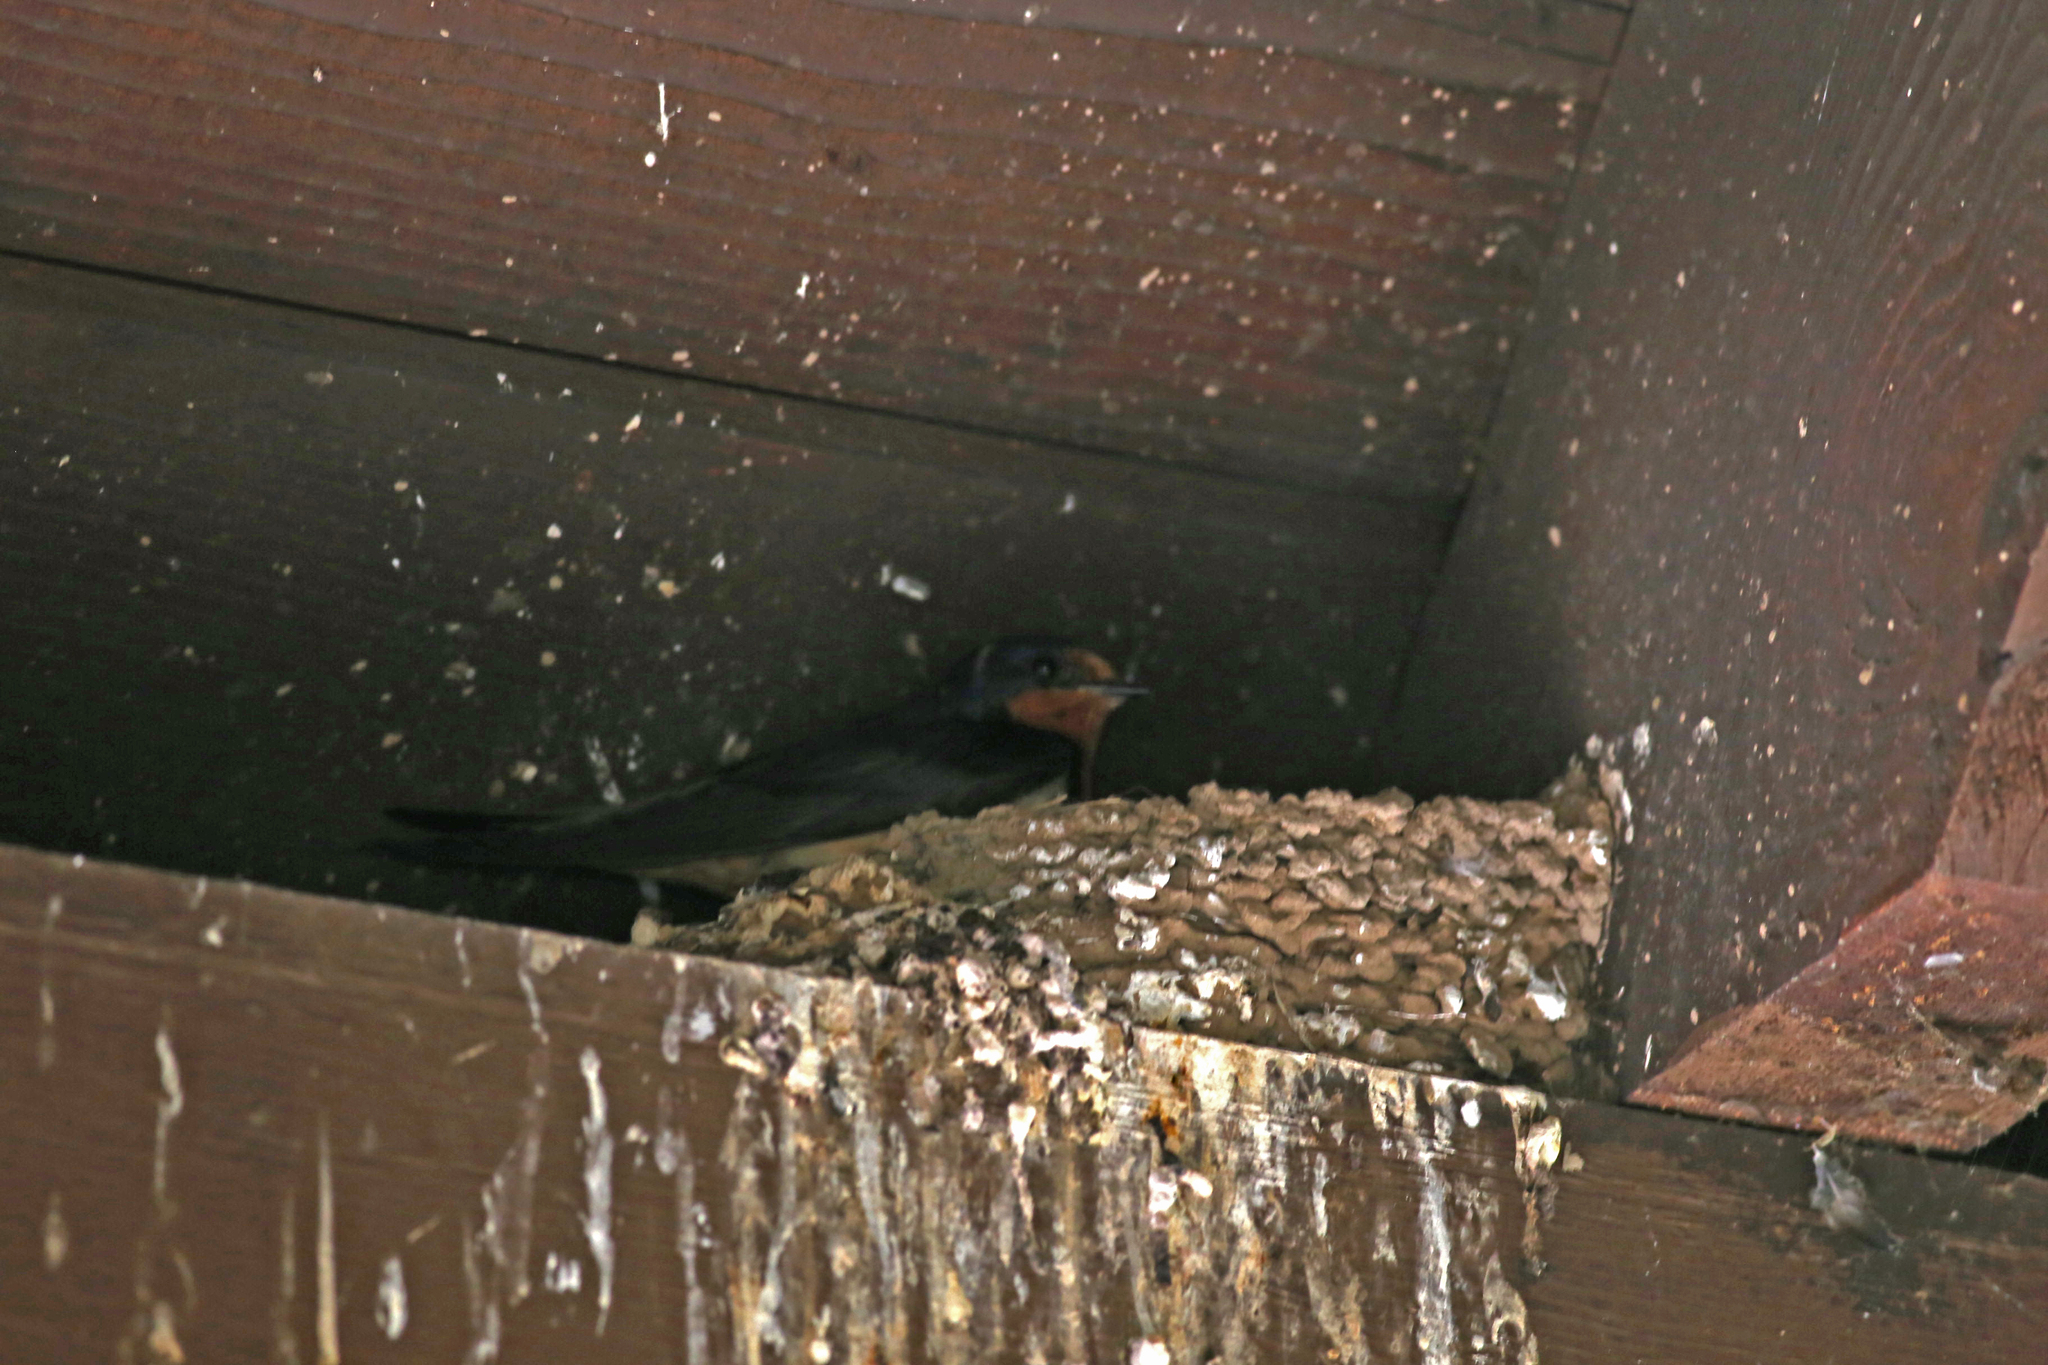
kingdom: Animalia
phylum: Chordata
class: Aves
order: Passeriformes
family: Hirundinidae
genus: Hirundo
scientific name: Hirundo rustica
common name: Barn swallow
